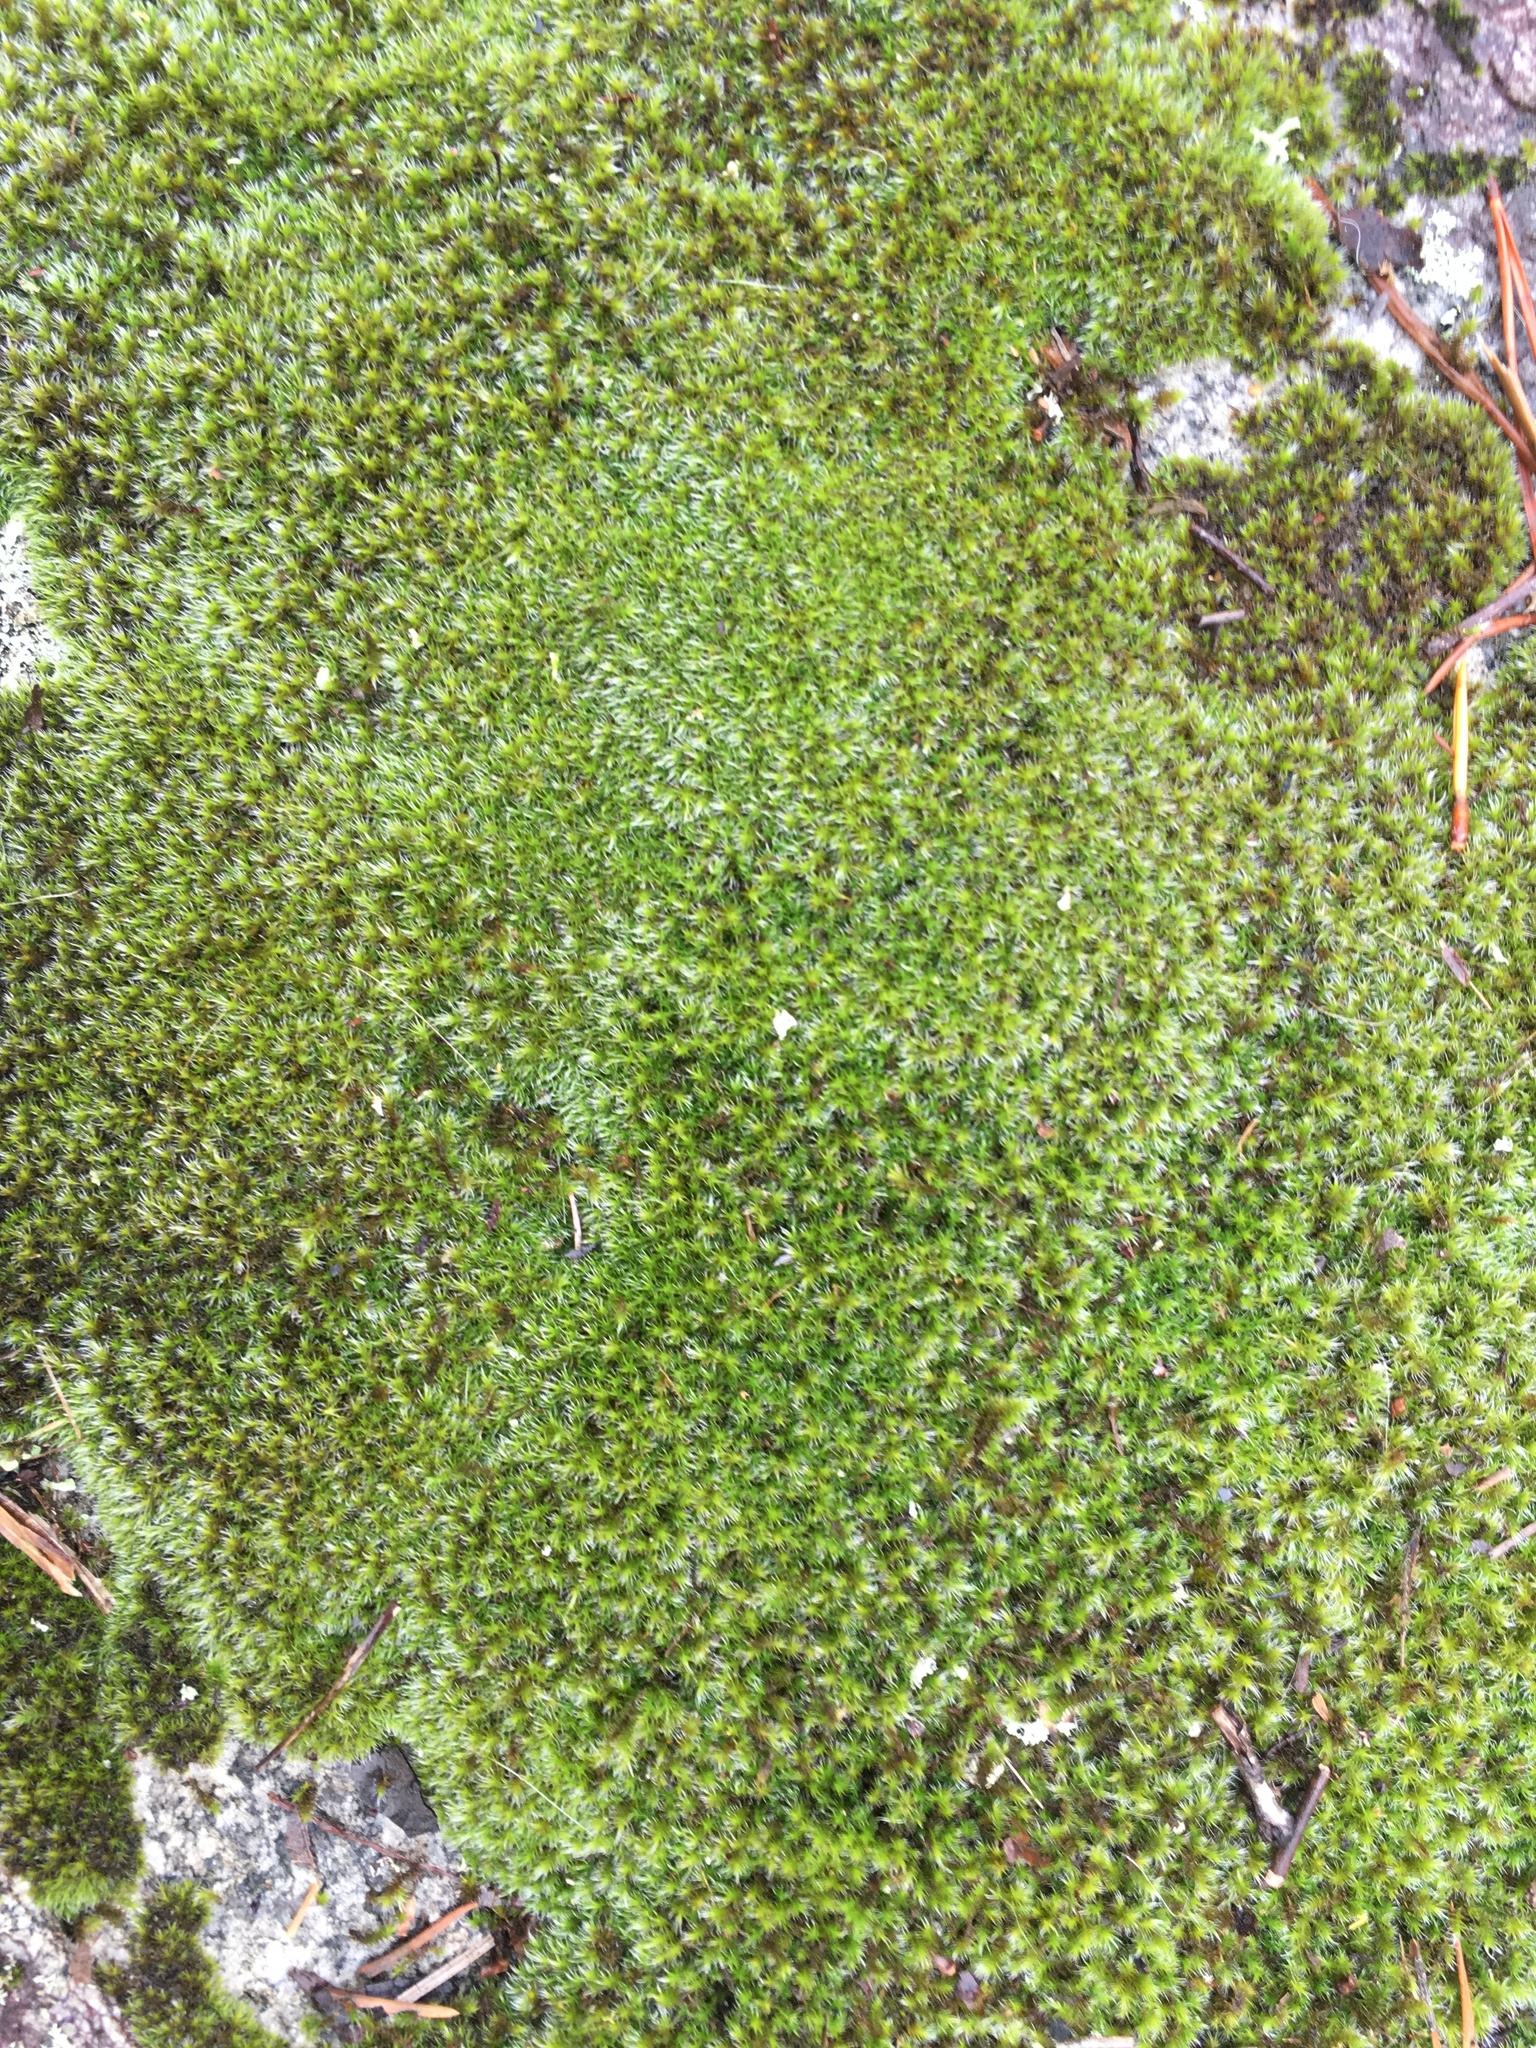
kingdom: Plantae
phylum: Bryophyta
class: Bryopsida
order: Dicranales
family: Leucobryaceae
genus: Campylopus
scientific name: Campylopus introflexus
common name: Heath star moss
